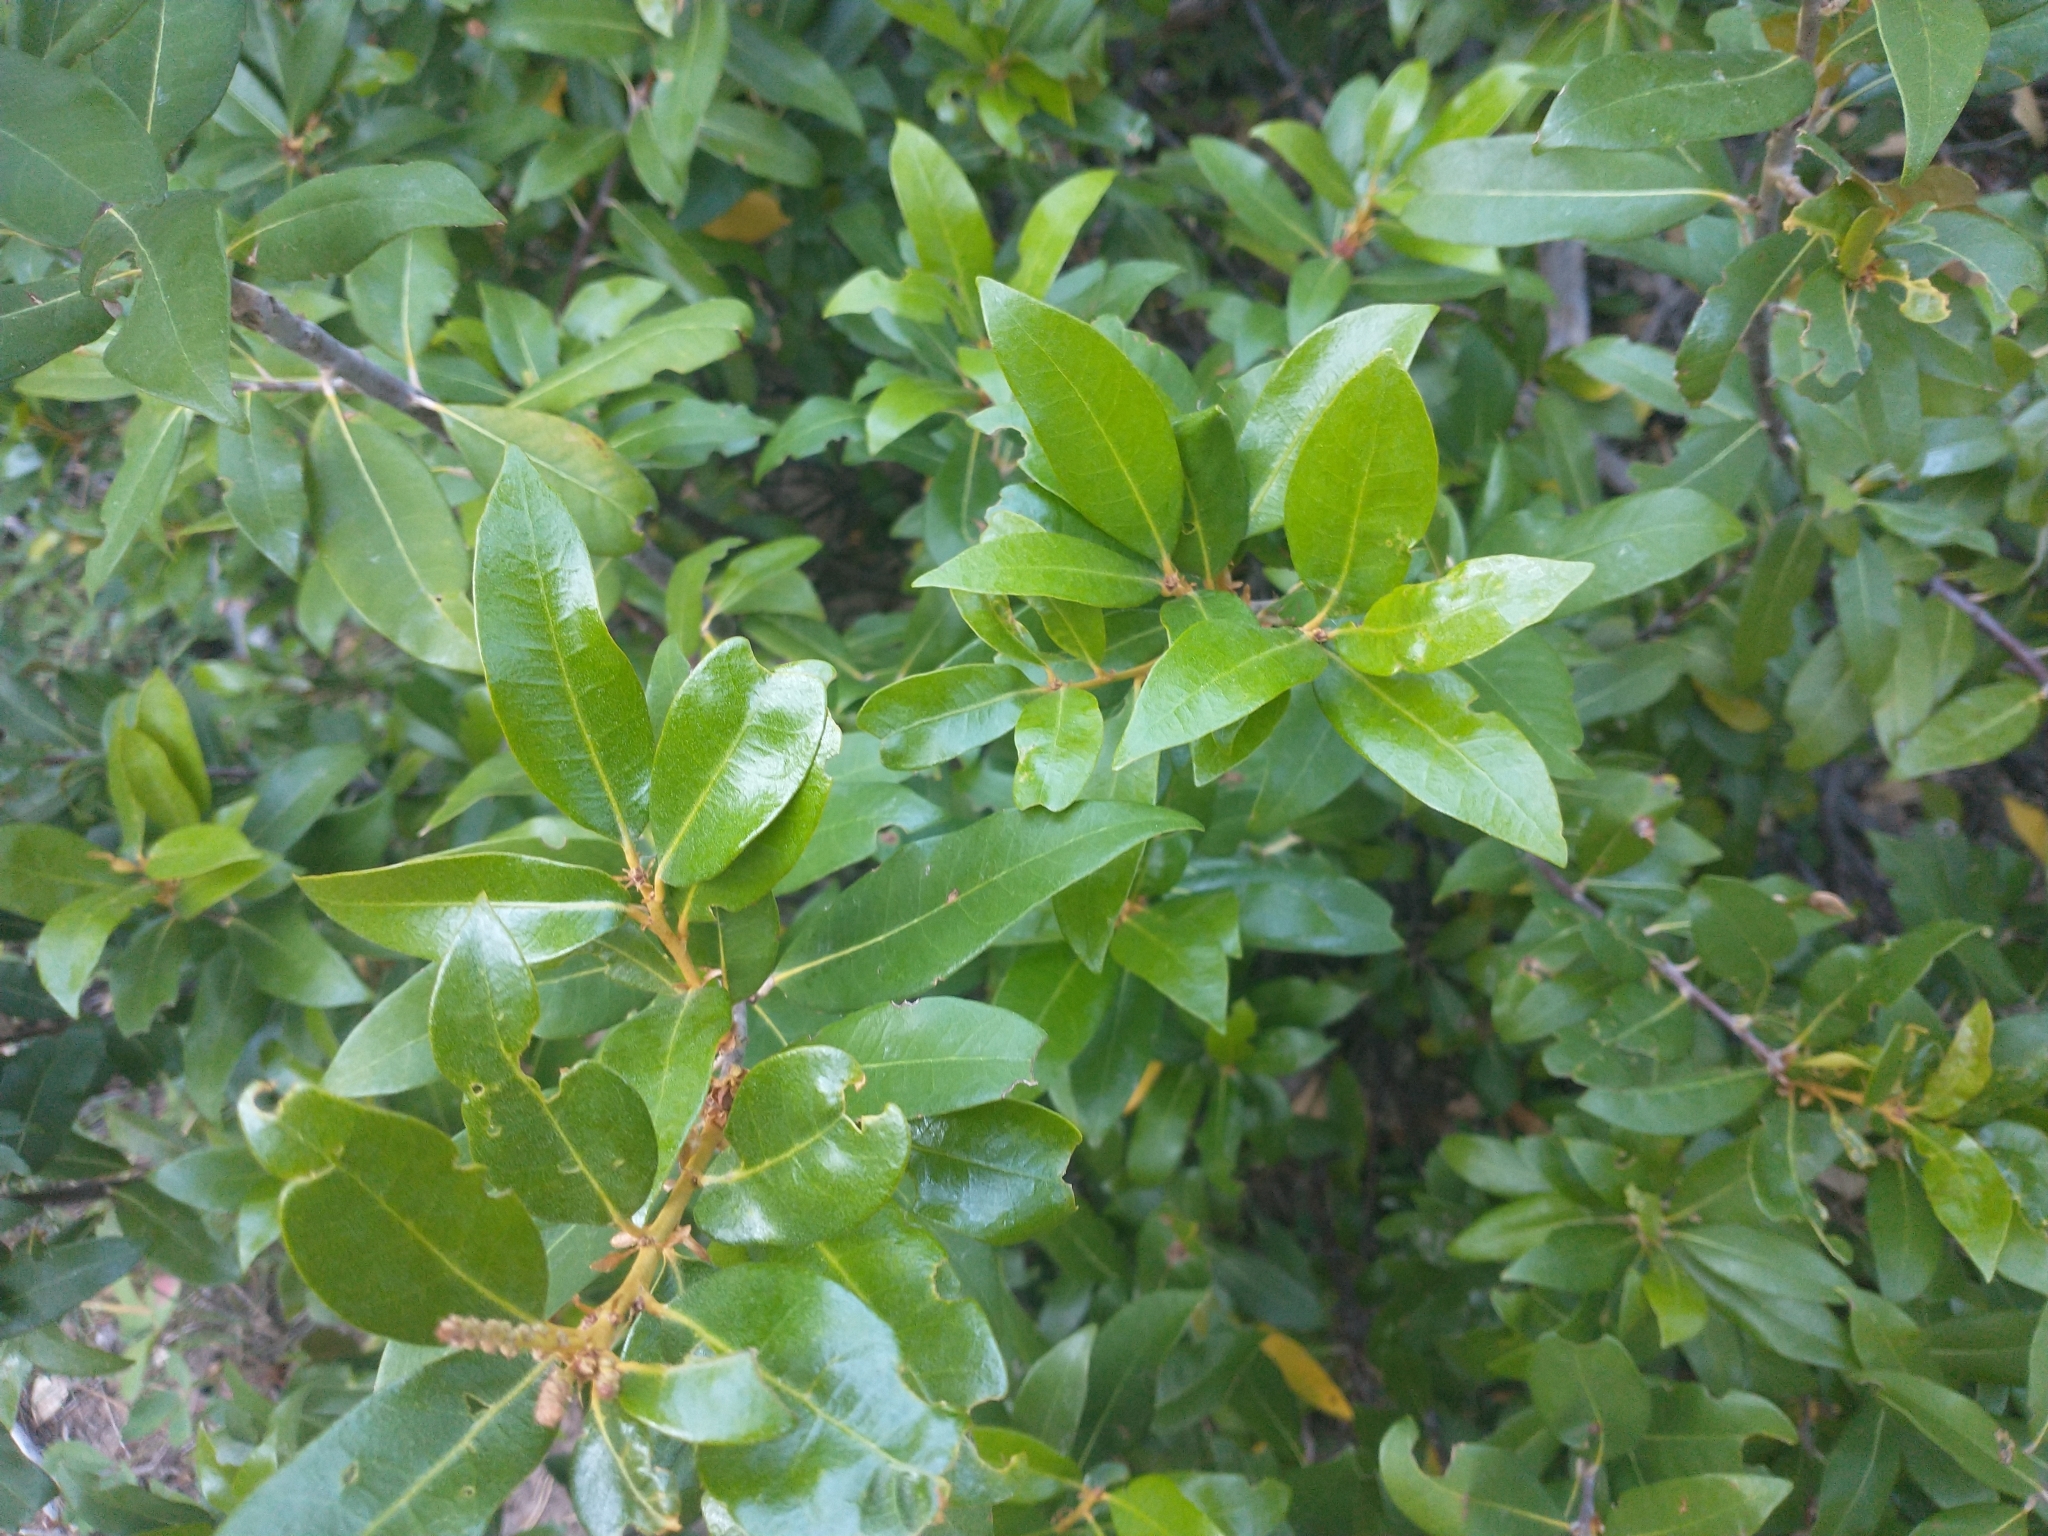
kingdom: Plantae
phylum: Tracheophyta
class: Magnoliopsida
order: Fagales
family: Fagaceae
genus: Chrysolepis
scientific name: Chrysolepis chrysophylla
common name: Giant chinquapin
